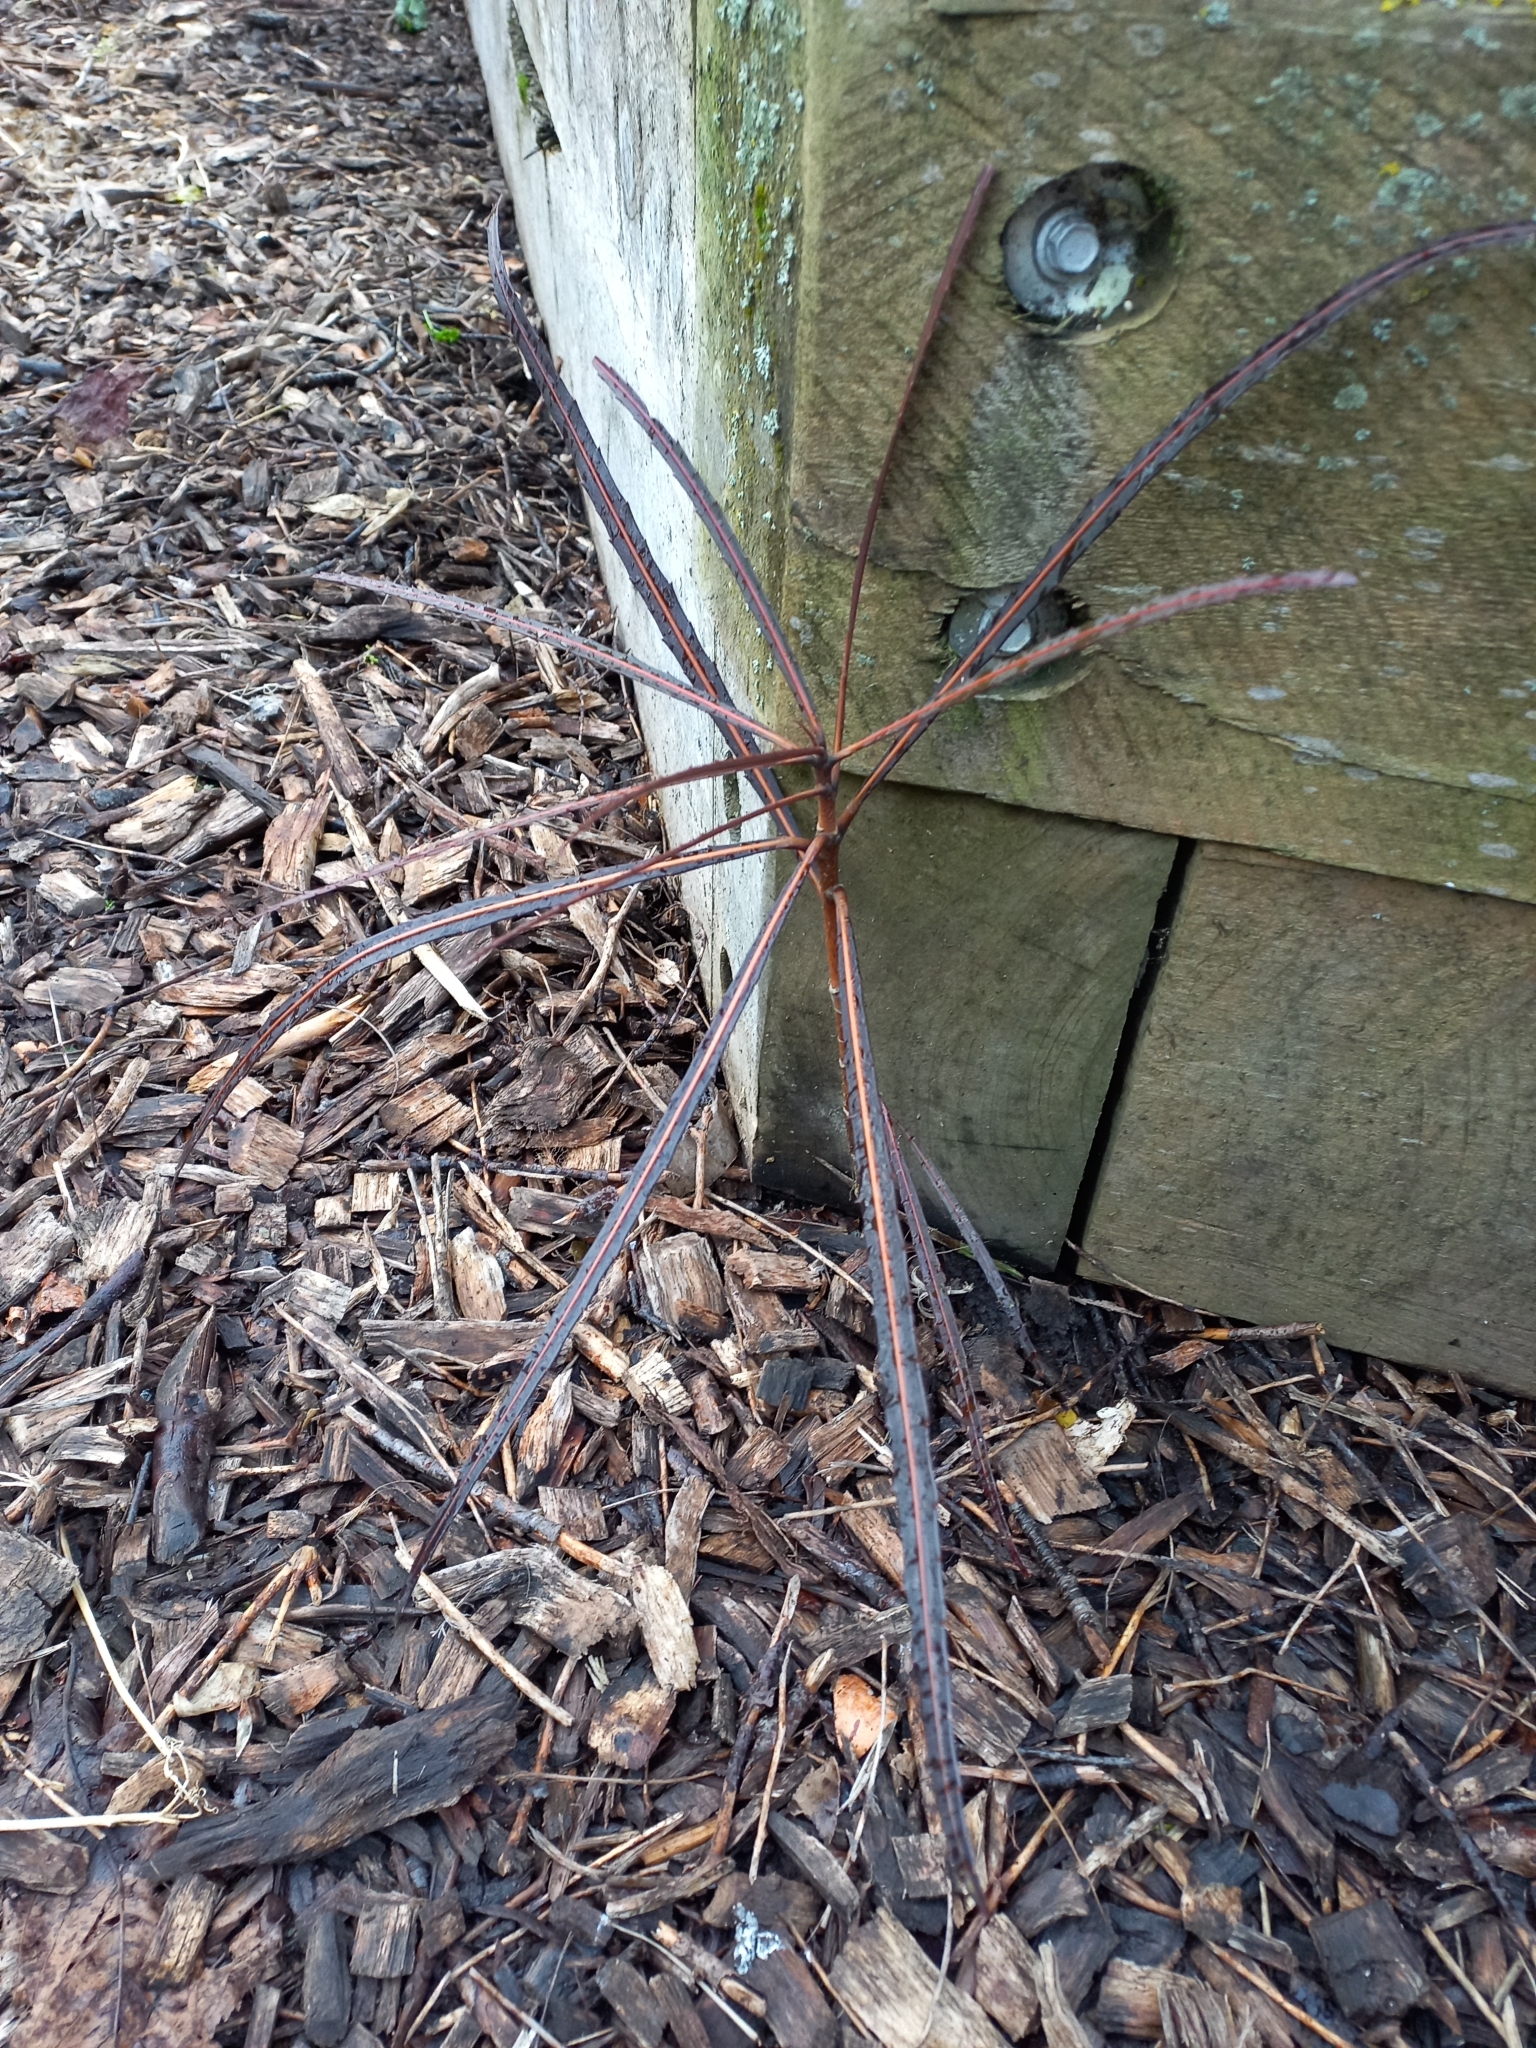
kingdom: Plantae
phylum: Tracheophyta
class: Magnoliopsida
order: Apiales
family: Araliaceae
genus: Pseudopanax
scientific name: Pseudopanax crassifolius
